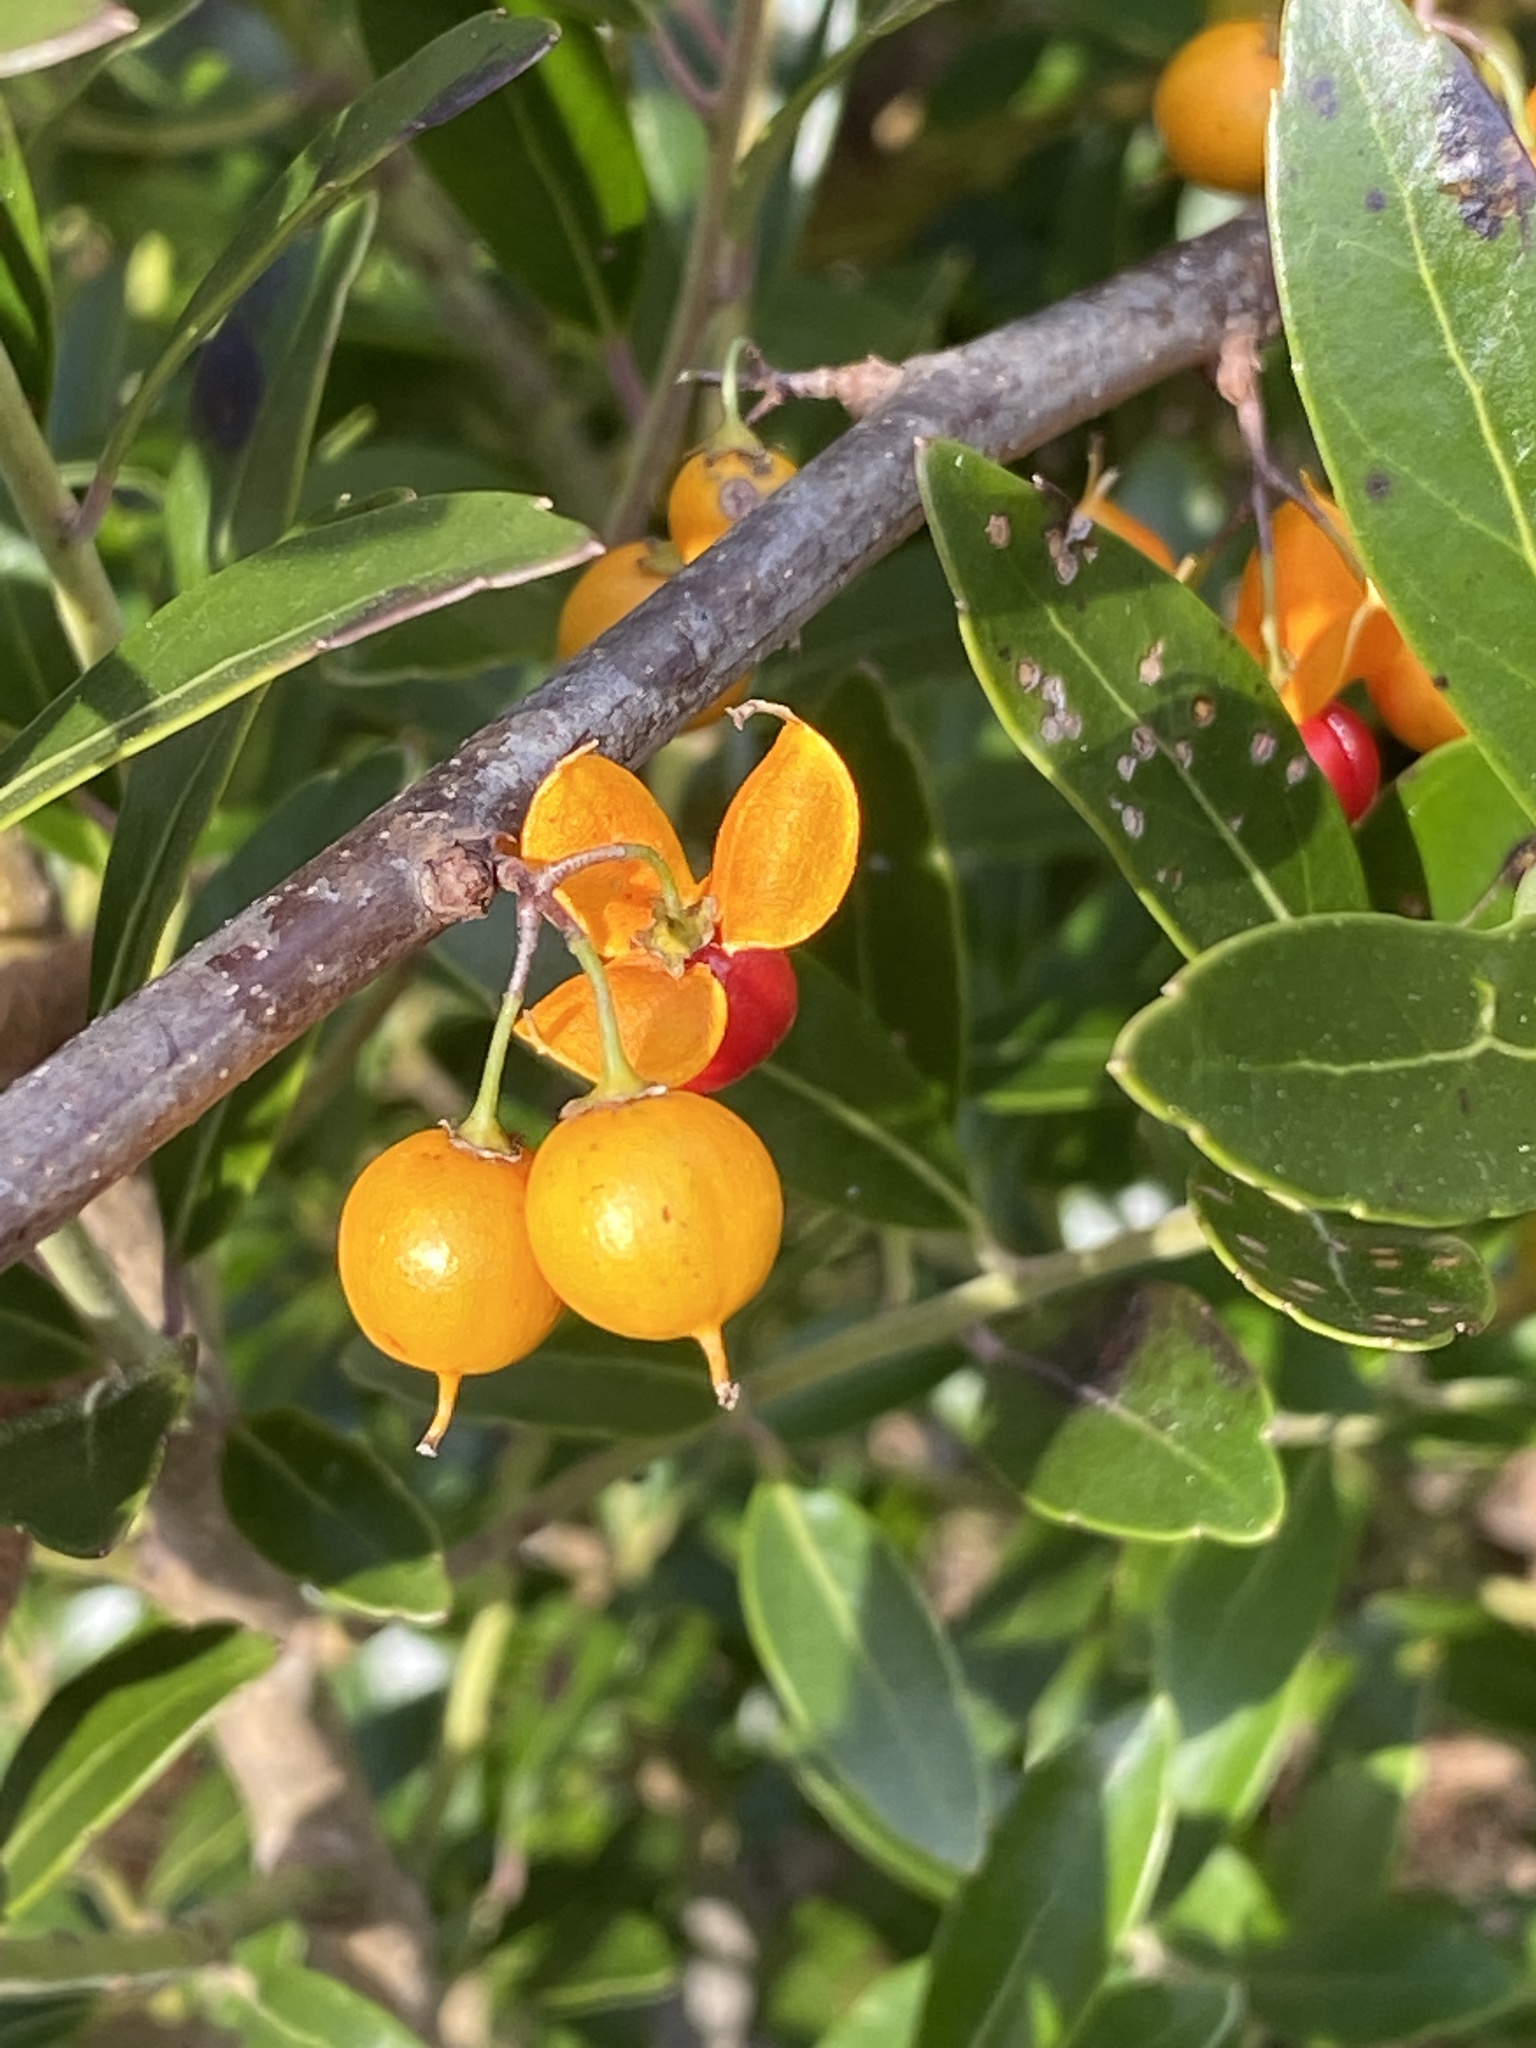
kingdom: Plantae
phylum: Tracheophyta
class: Magnoliopsida
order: Celastrales
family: Celastraceae
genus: Celastrus
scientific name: Celastrus orbiculatus
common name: Oriental bittersweet
